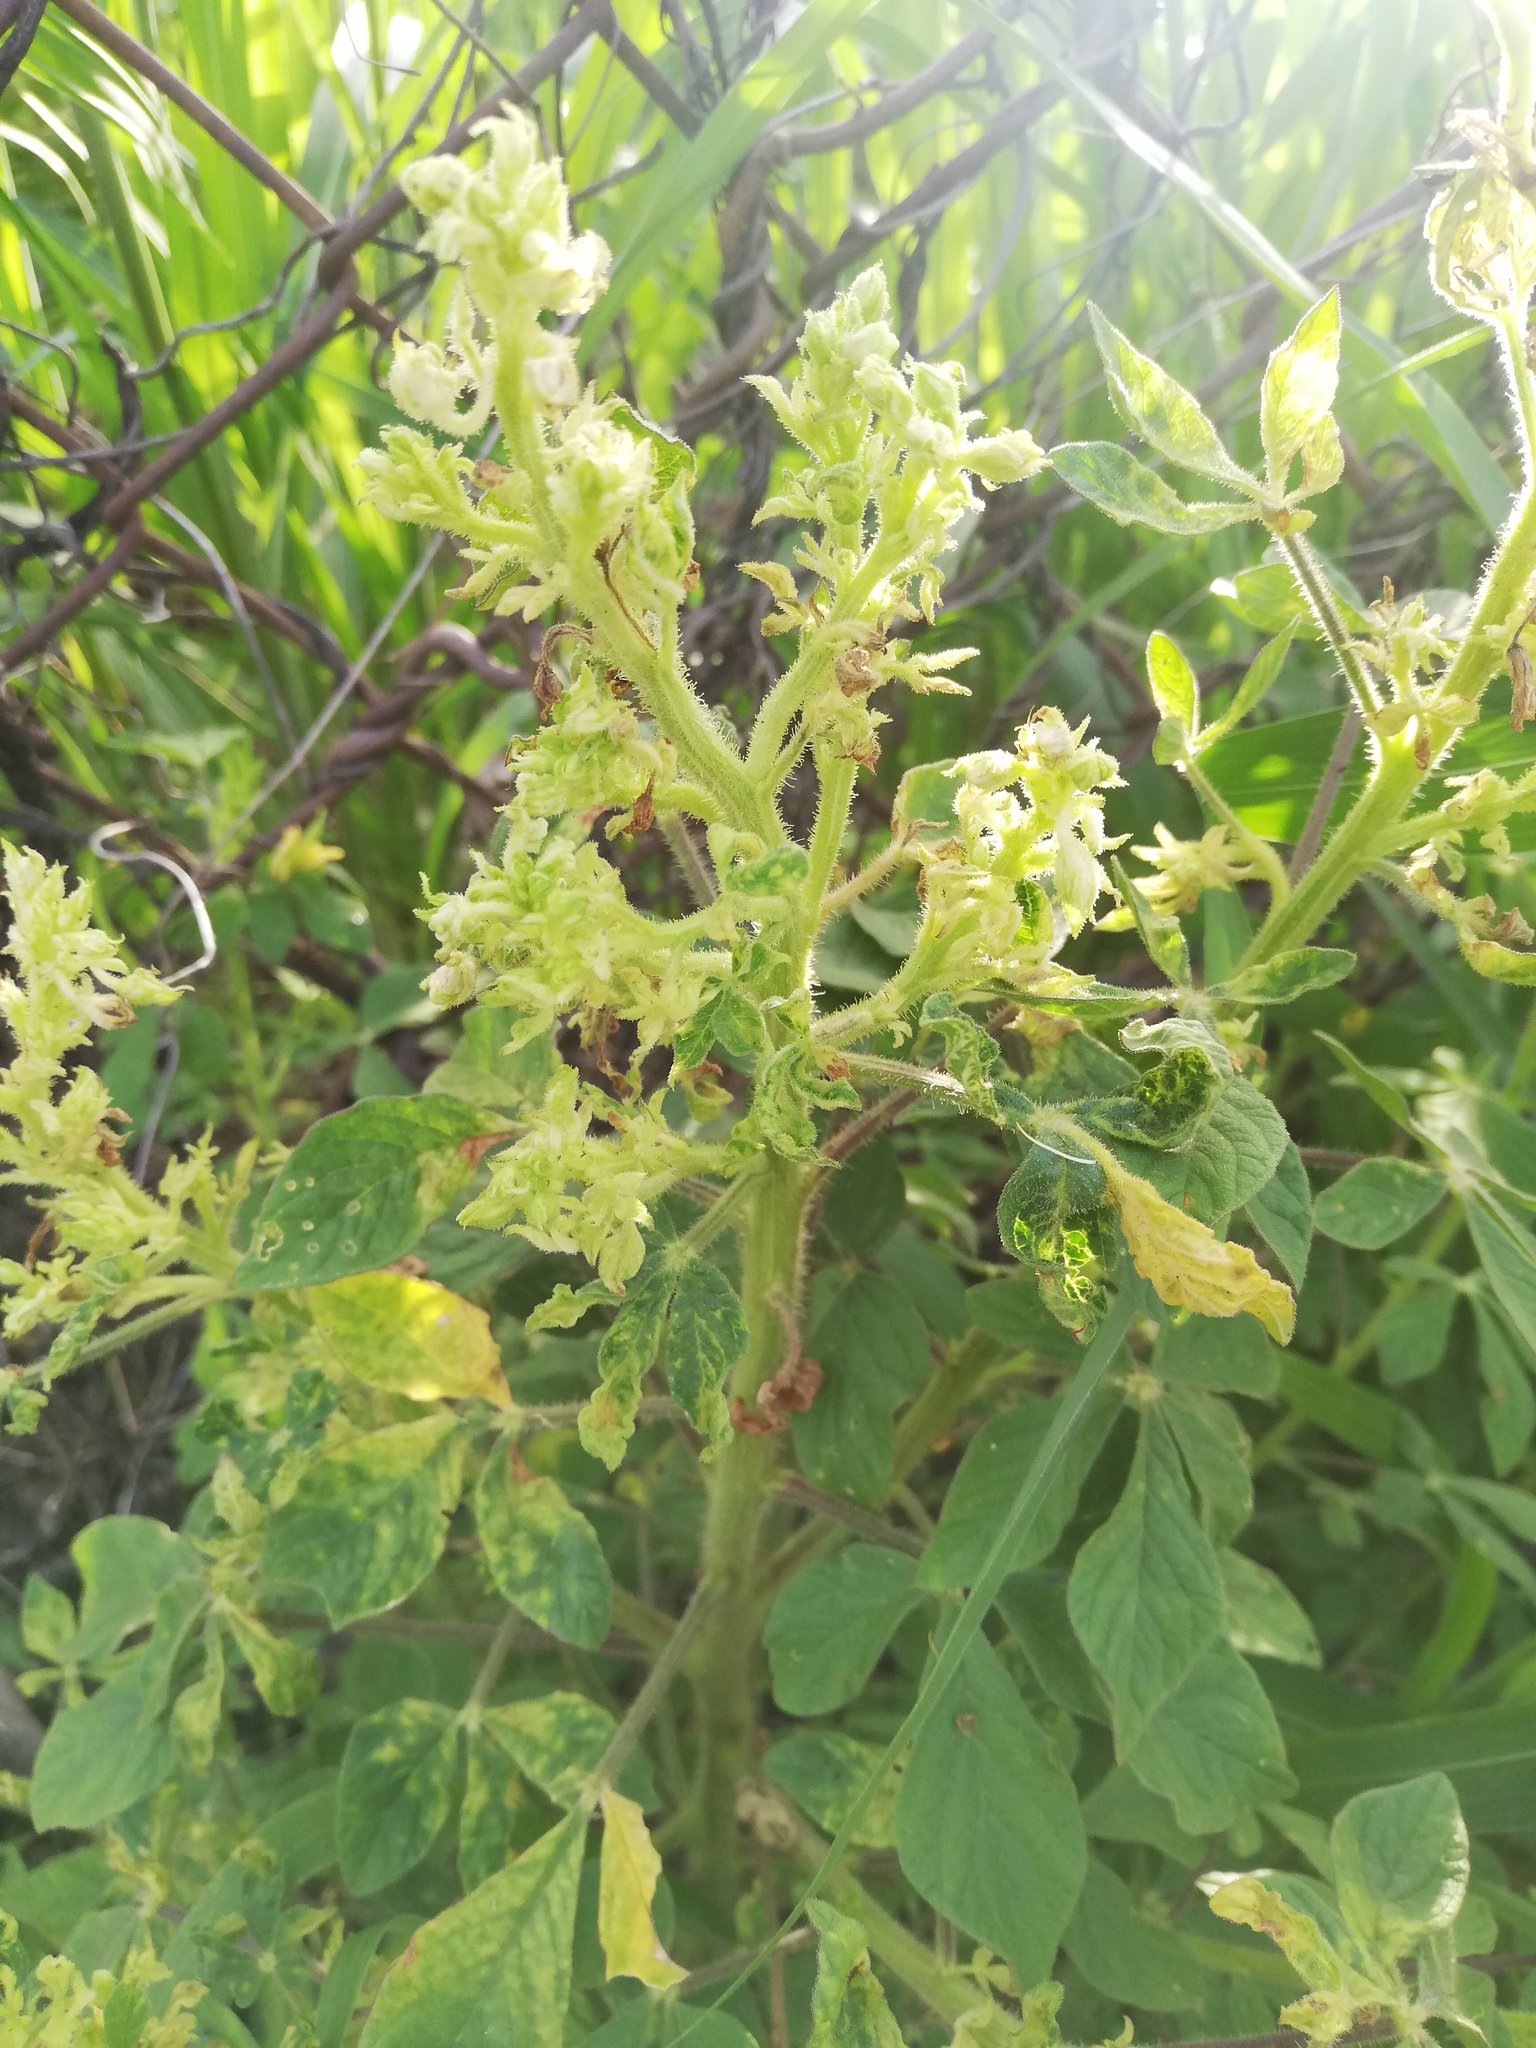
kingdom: Plantae
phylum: Tracheophyta
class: Magnoliopsida
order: Brassicales
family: Cleomaceae
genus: Arivela
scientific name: Arivela viscosa
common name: Asian spiderflower
